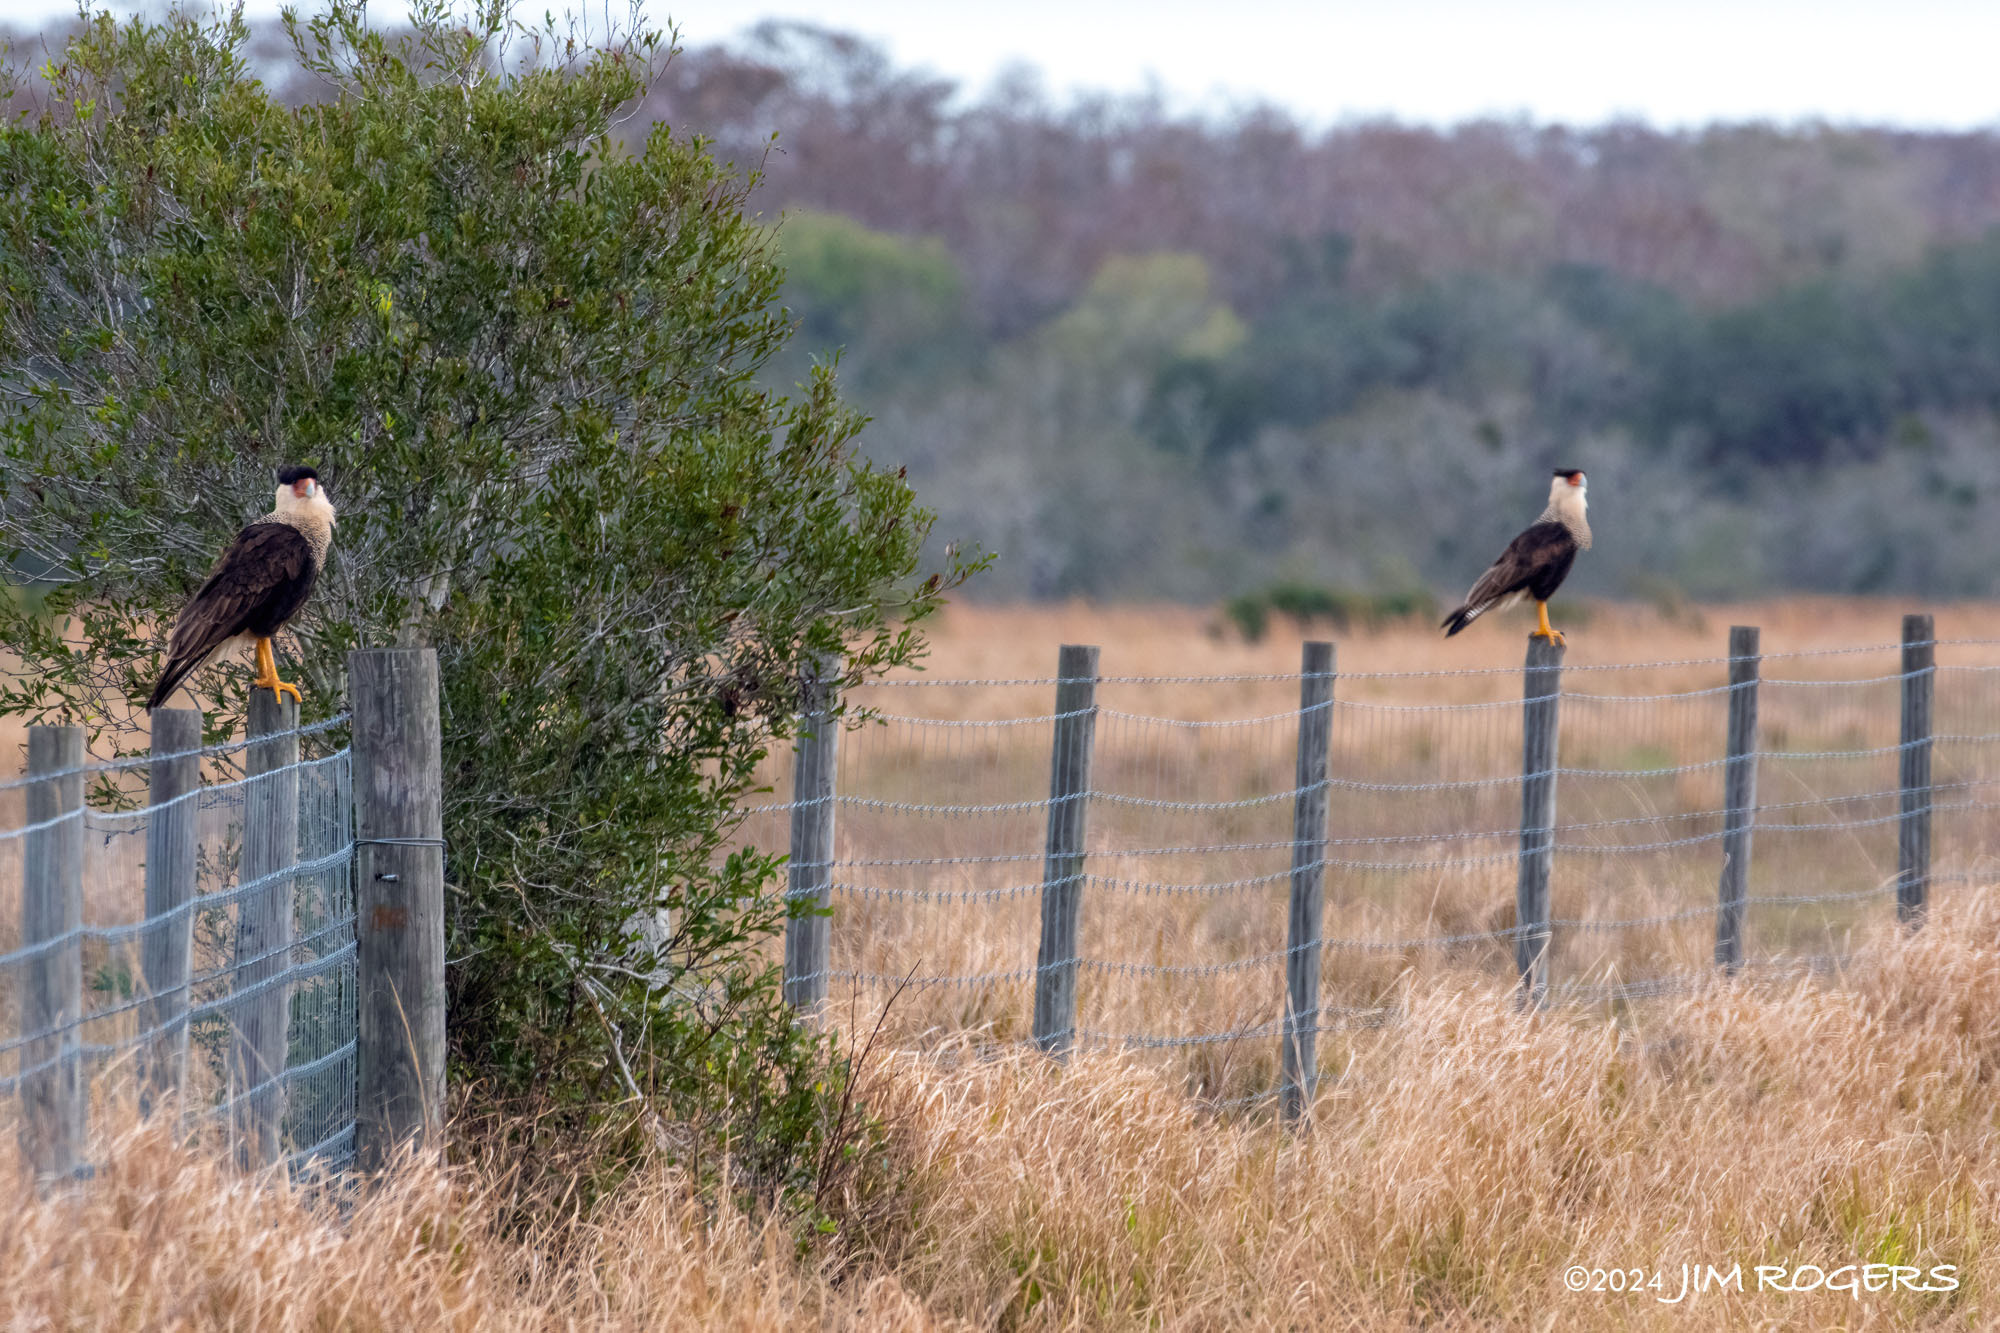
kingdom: Animalia
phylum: Chordata
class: Aves
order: Falconiformes
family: Falconidae
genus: Caracara
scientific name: Caracara plancus
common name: Southern caracara
